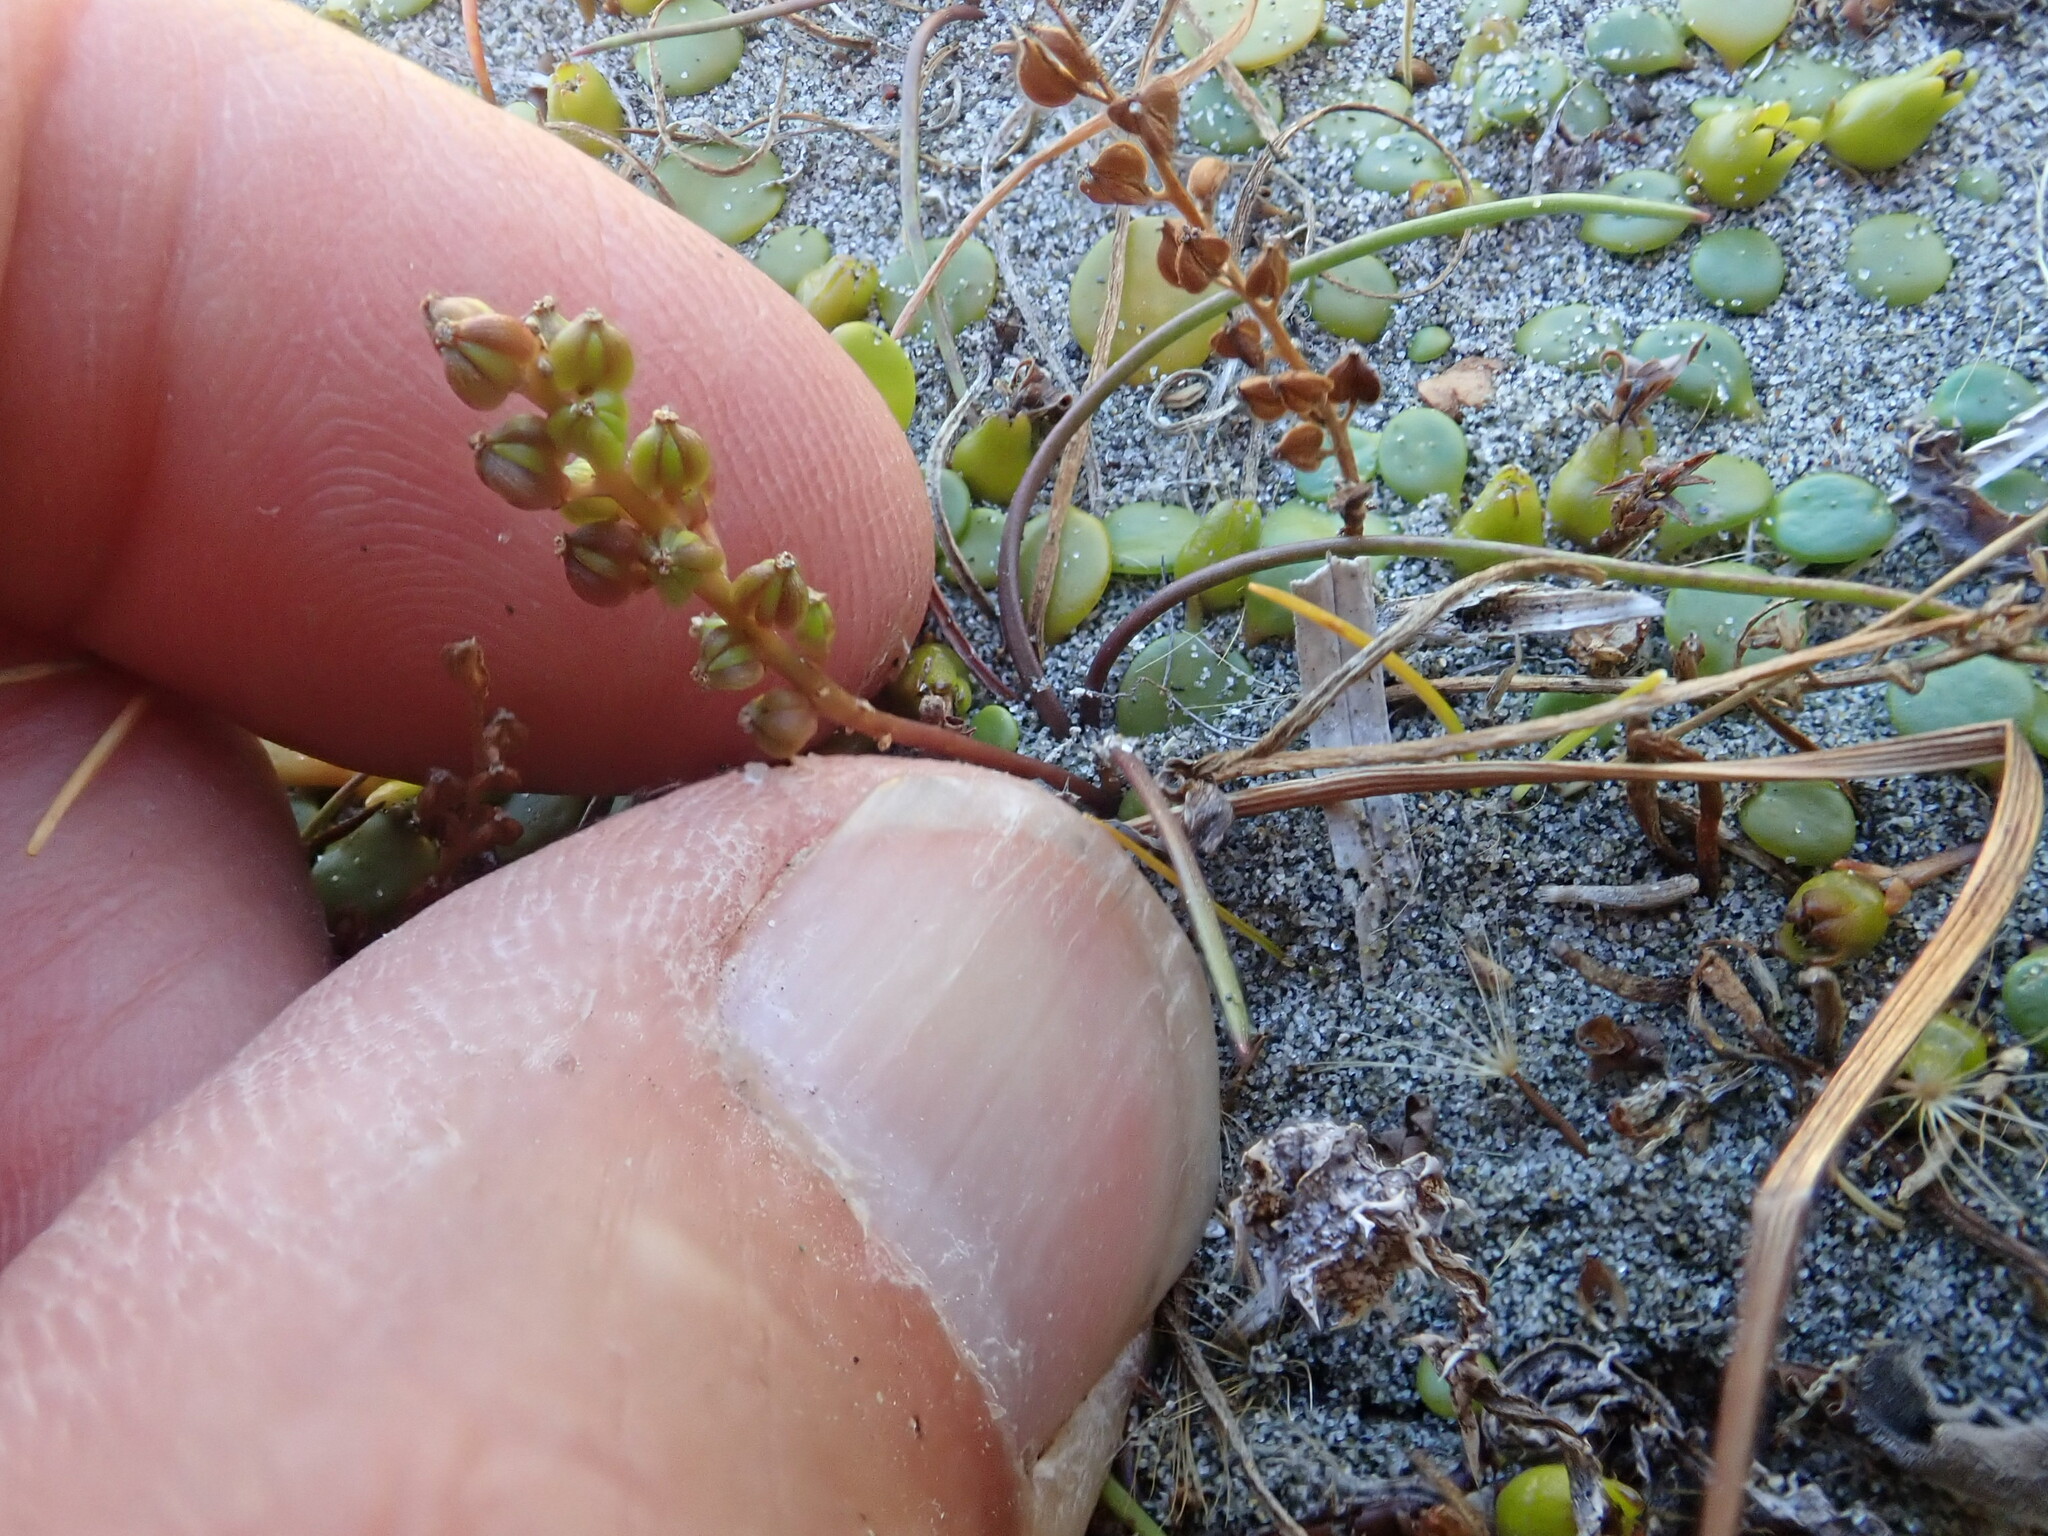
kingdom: Plantae
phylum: Tracheophyta
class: Liliopsida
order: Alismatales
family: Juncaginaceae
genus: Triglochin
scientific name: Triglochin striata
